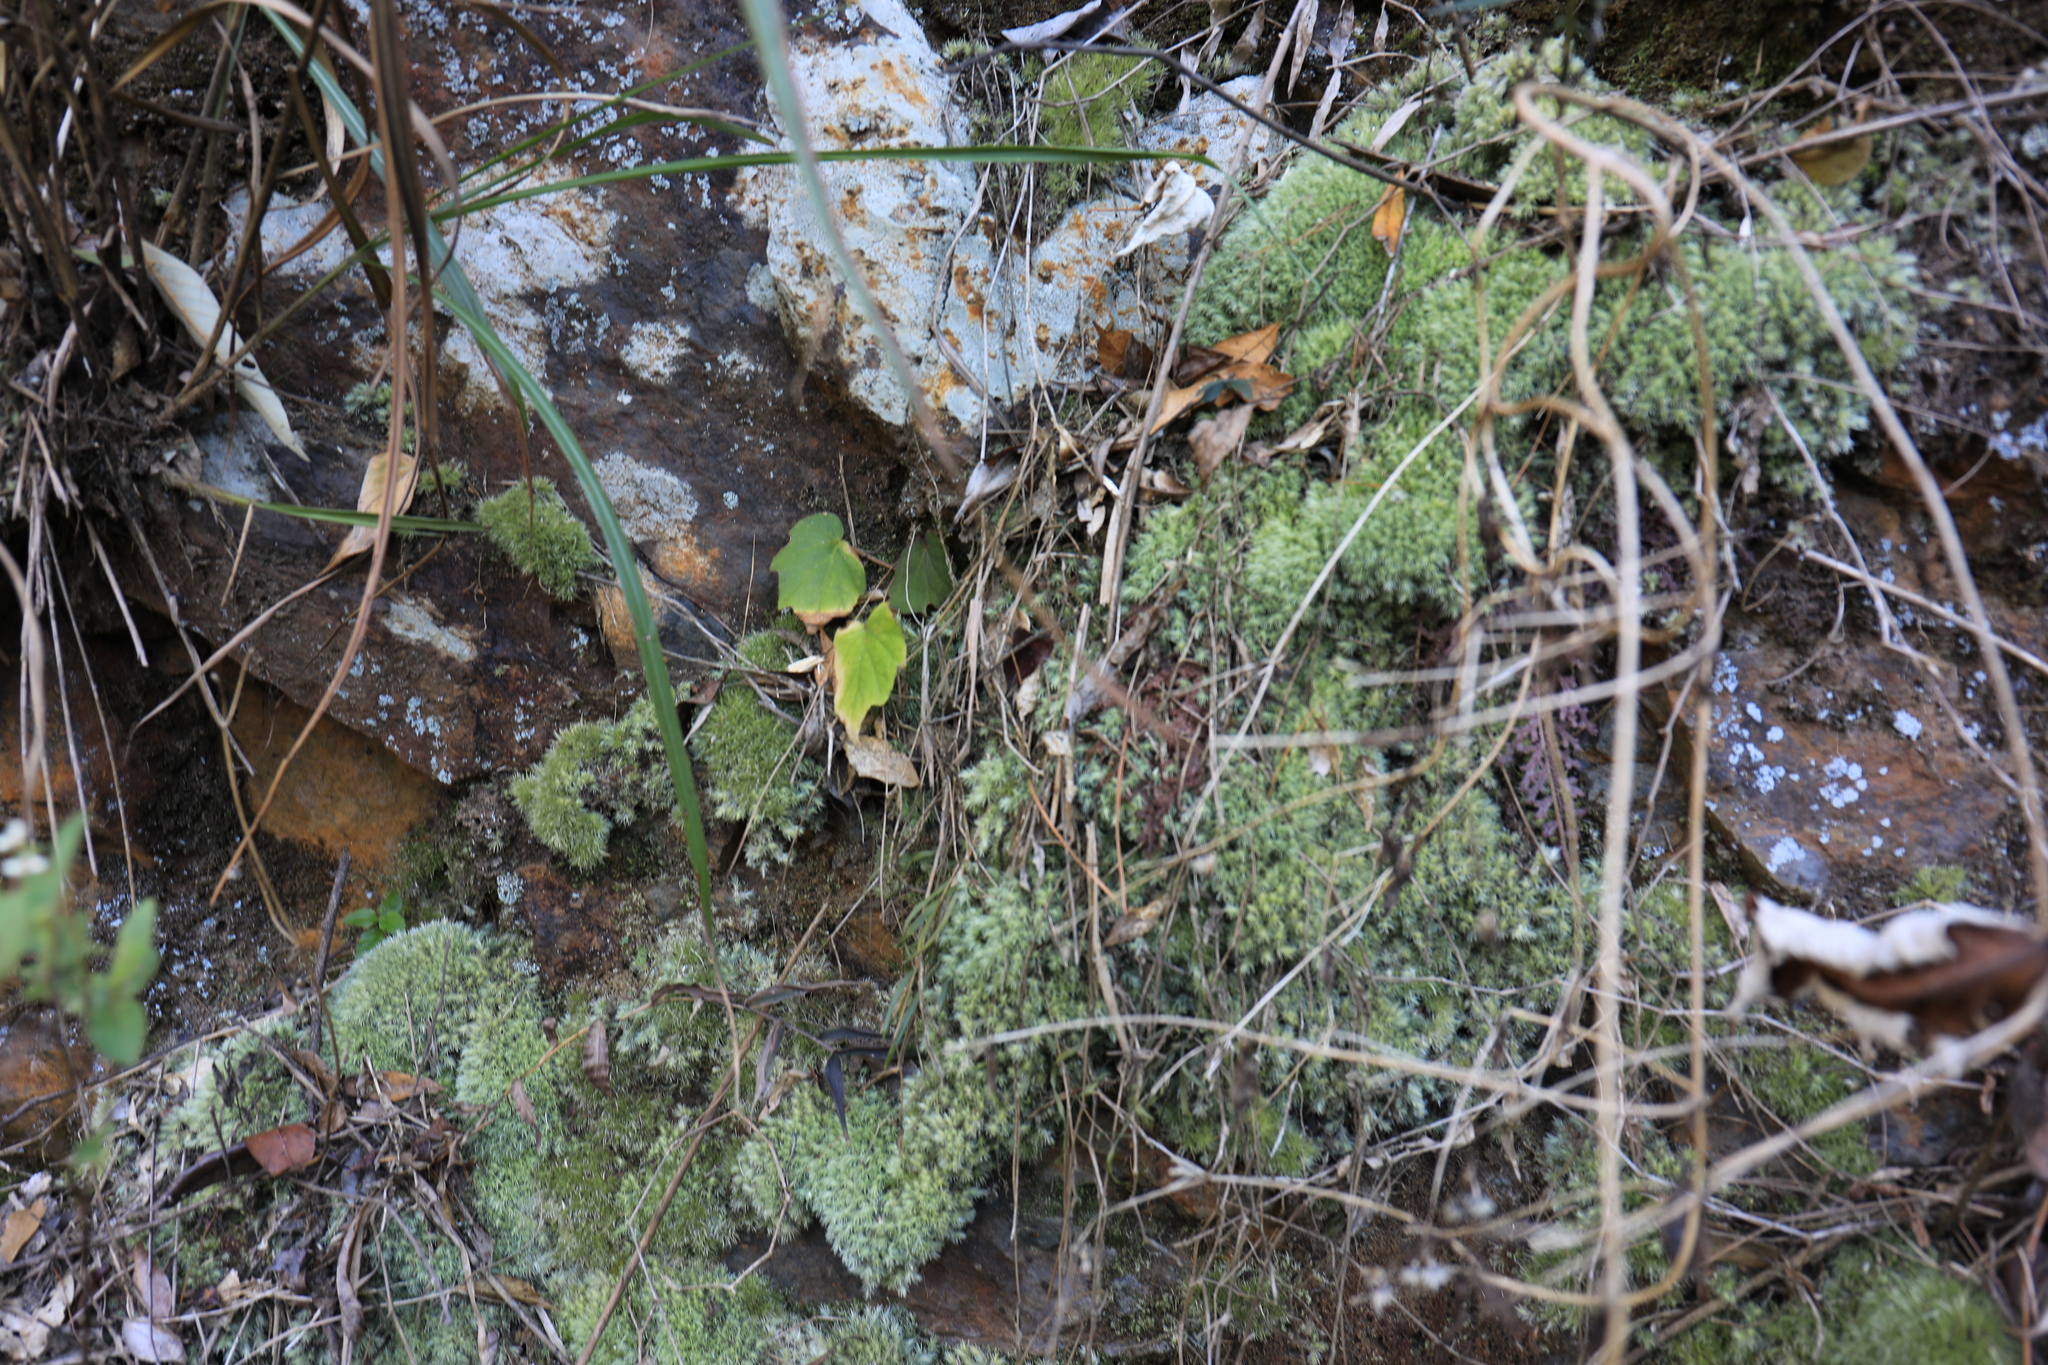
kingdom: Plantae
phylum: Tracheophyta
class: Magnoliopsida
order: Cucurbitales
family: Begoniaceae
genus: Begonia
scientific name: Begonia palmata
